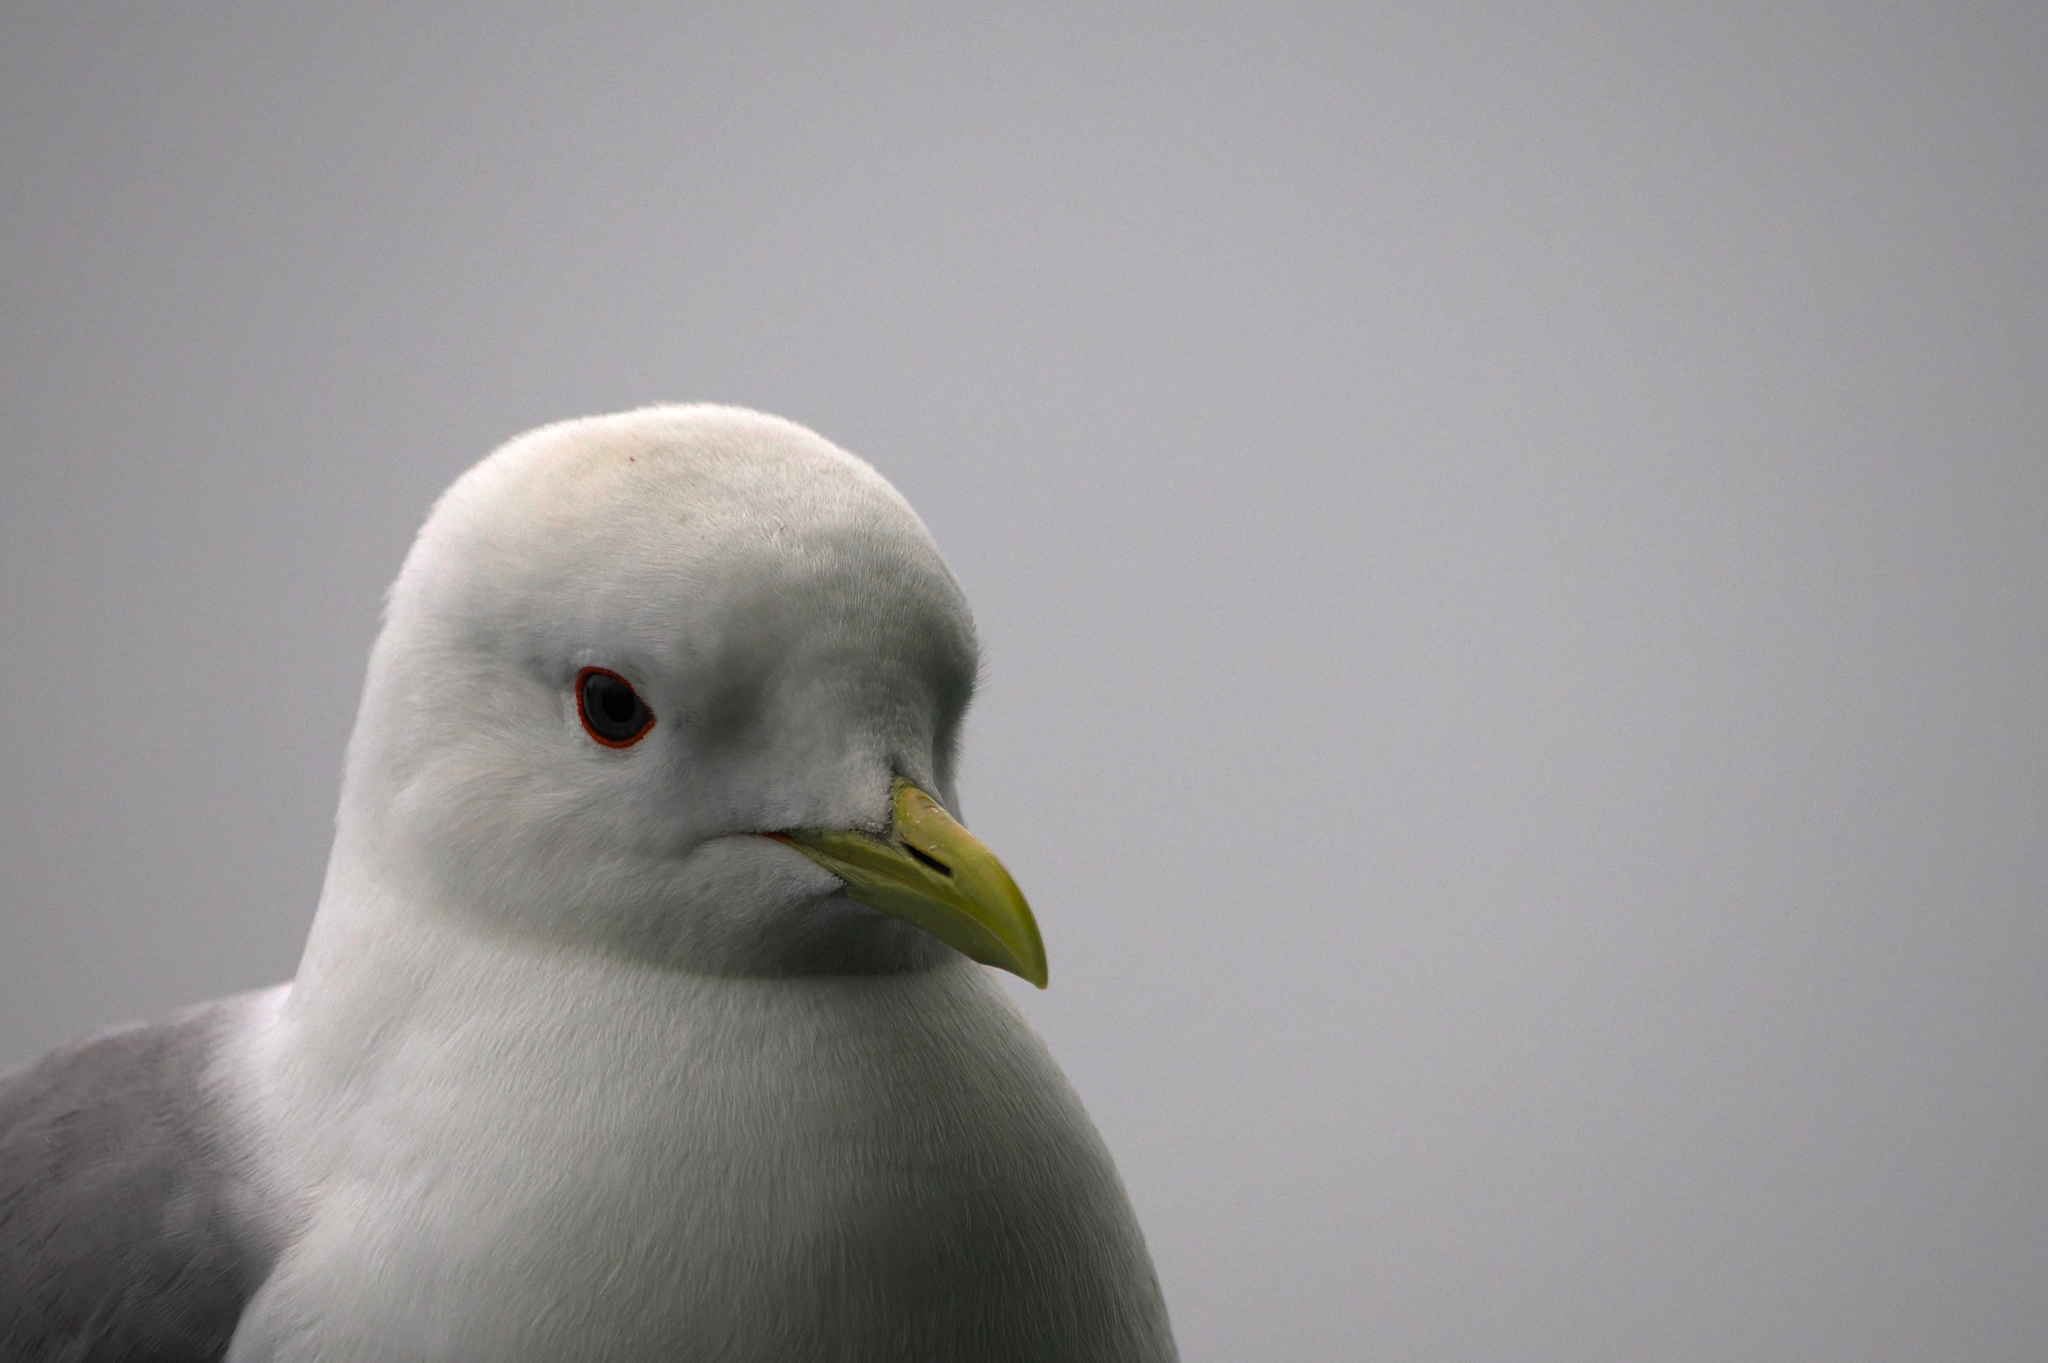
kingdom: Animalia
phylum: Chordata
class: Aves
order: Charadriiformes
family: Laridae
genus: Larus
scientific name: Larus brachyrhynchus
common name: Short-billed gull
